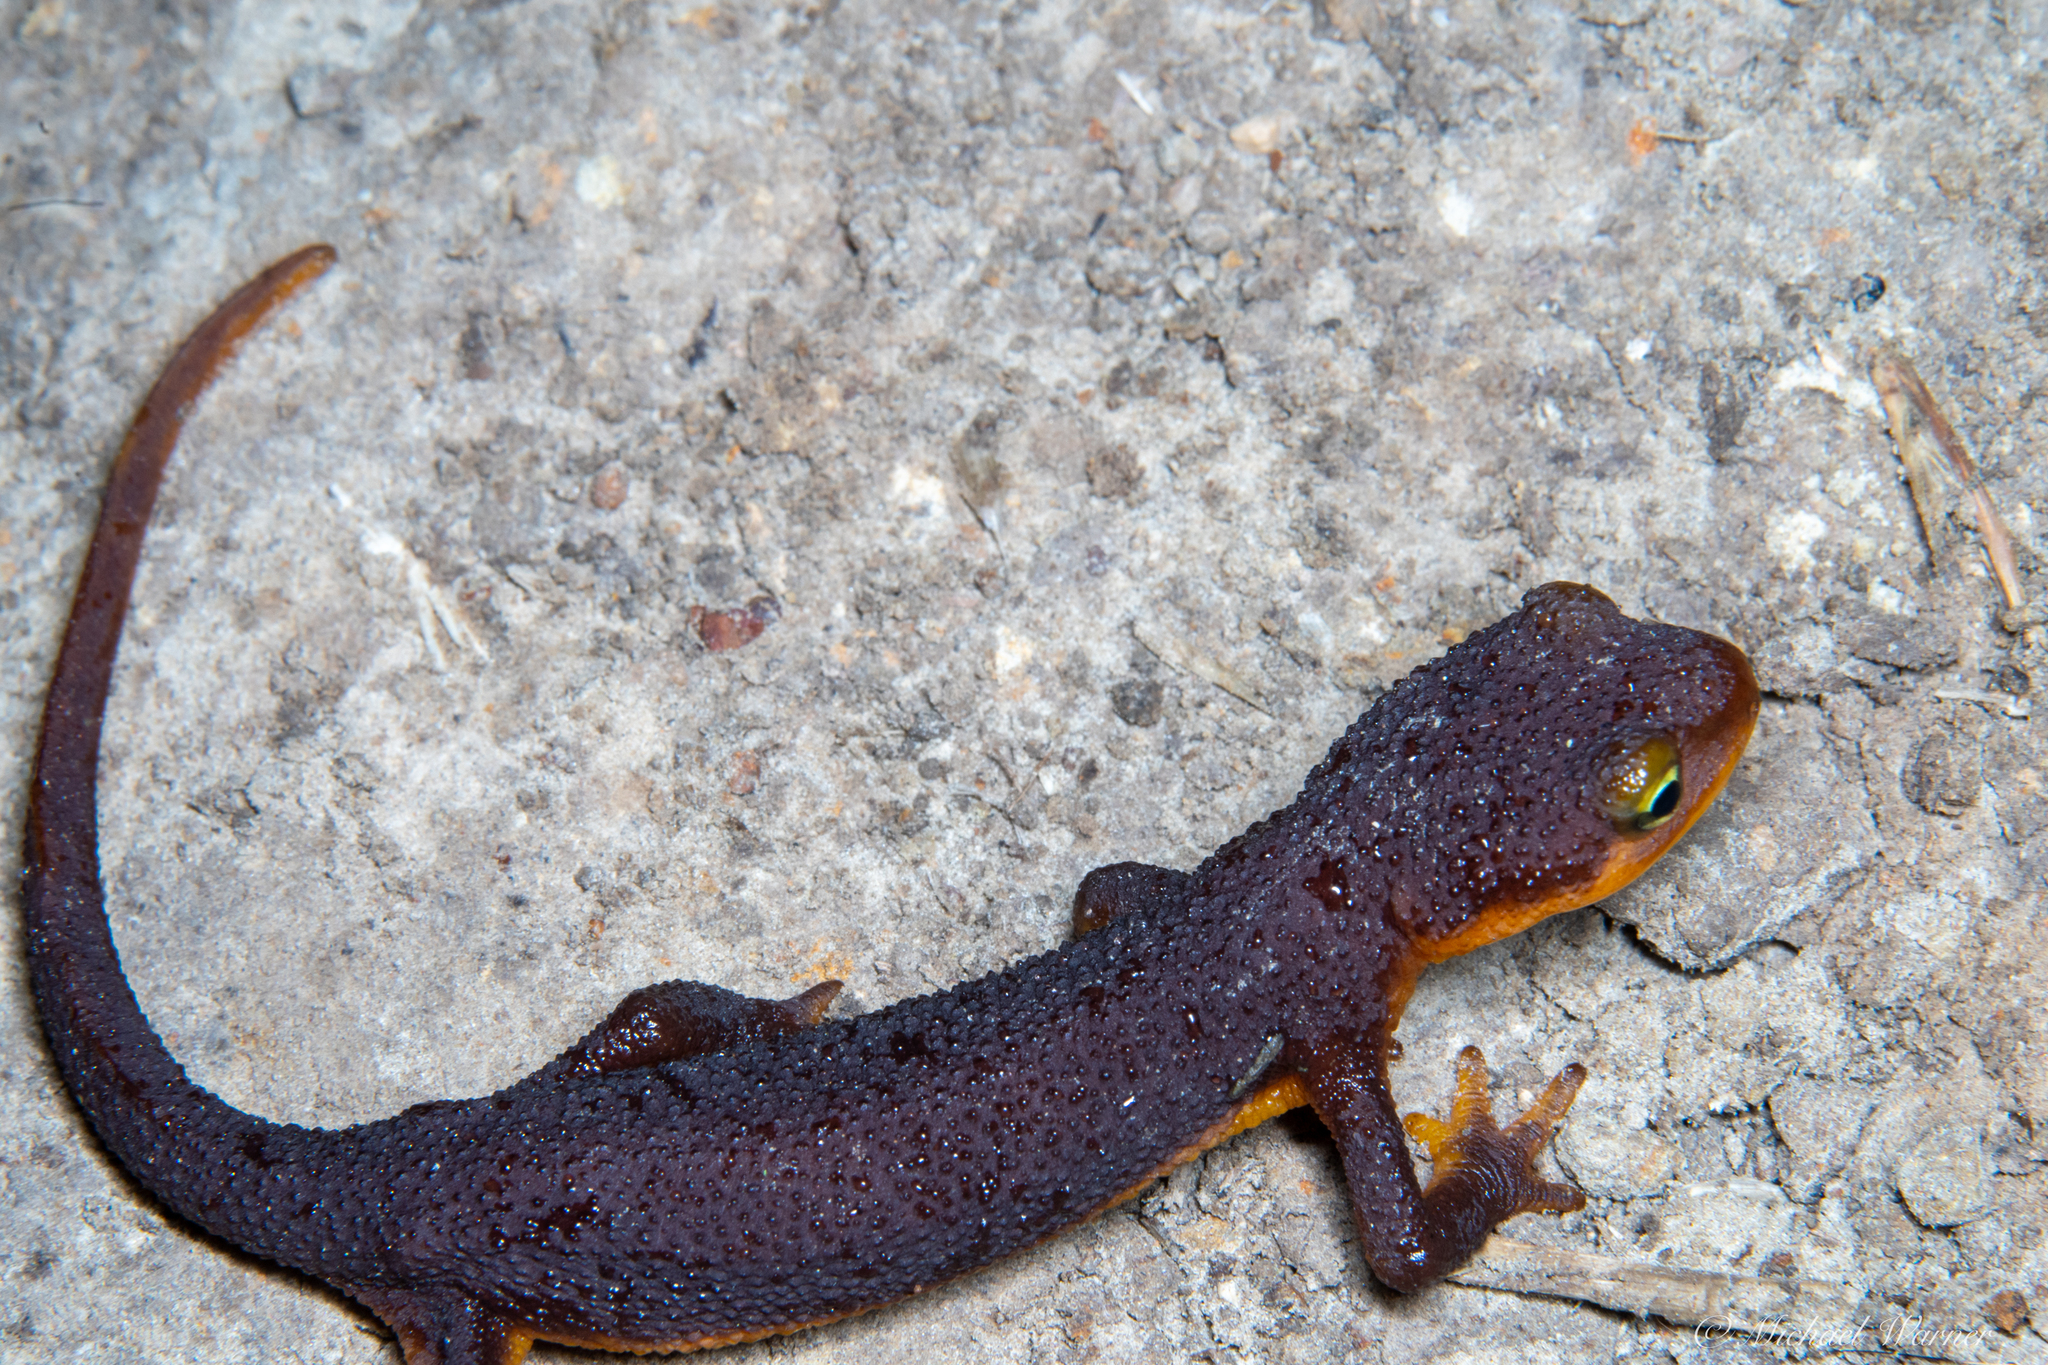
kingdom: Animalia
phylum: Chordata
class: Amphibia
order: Caudata
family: Salamandridae
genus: Taricha
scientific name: Taricha torosa
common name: California newt
